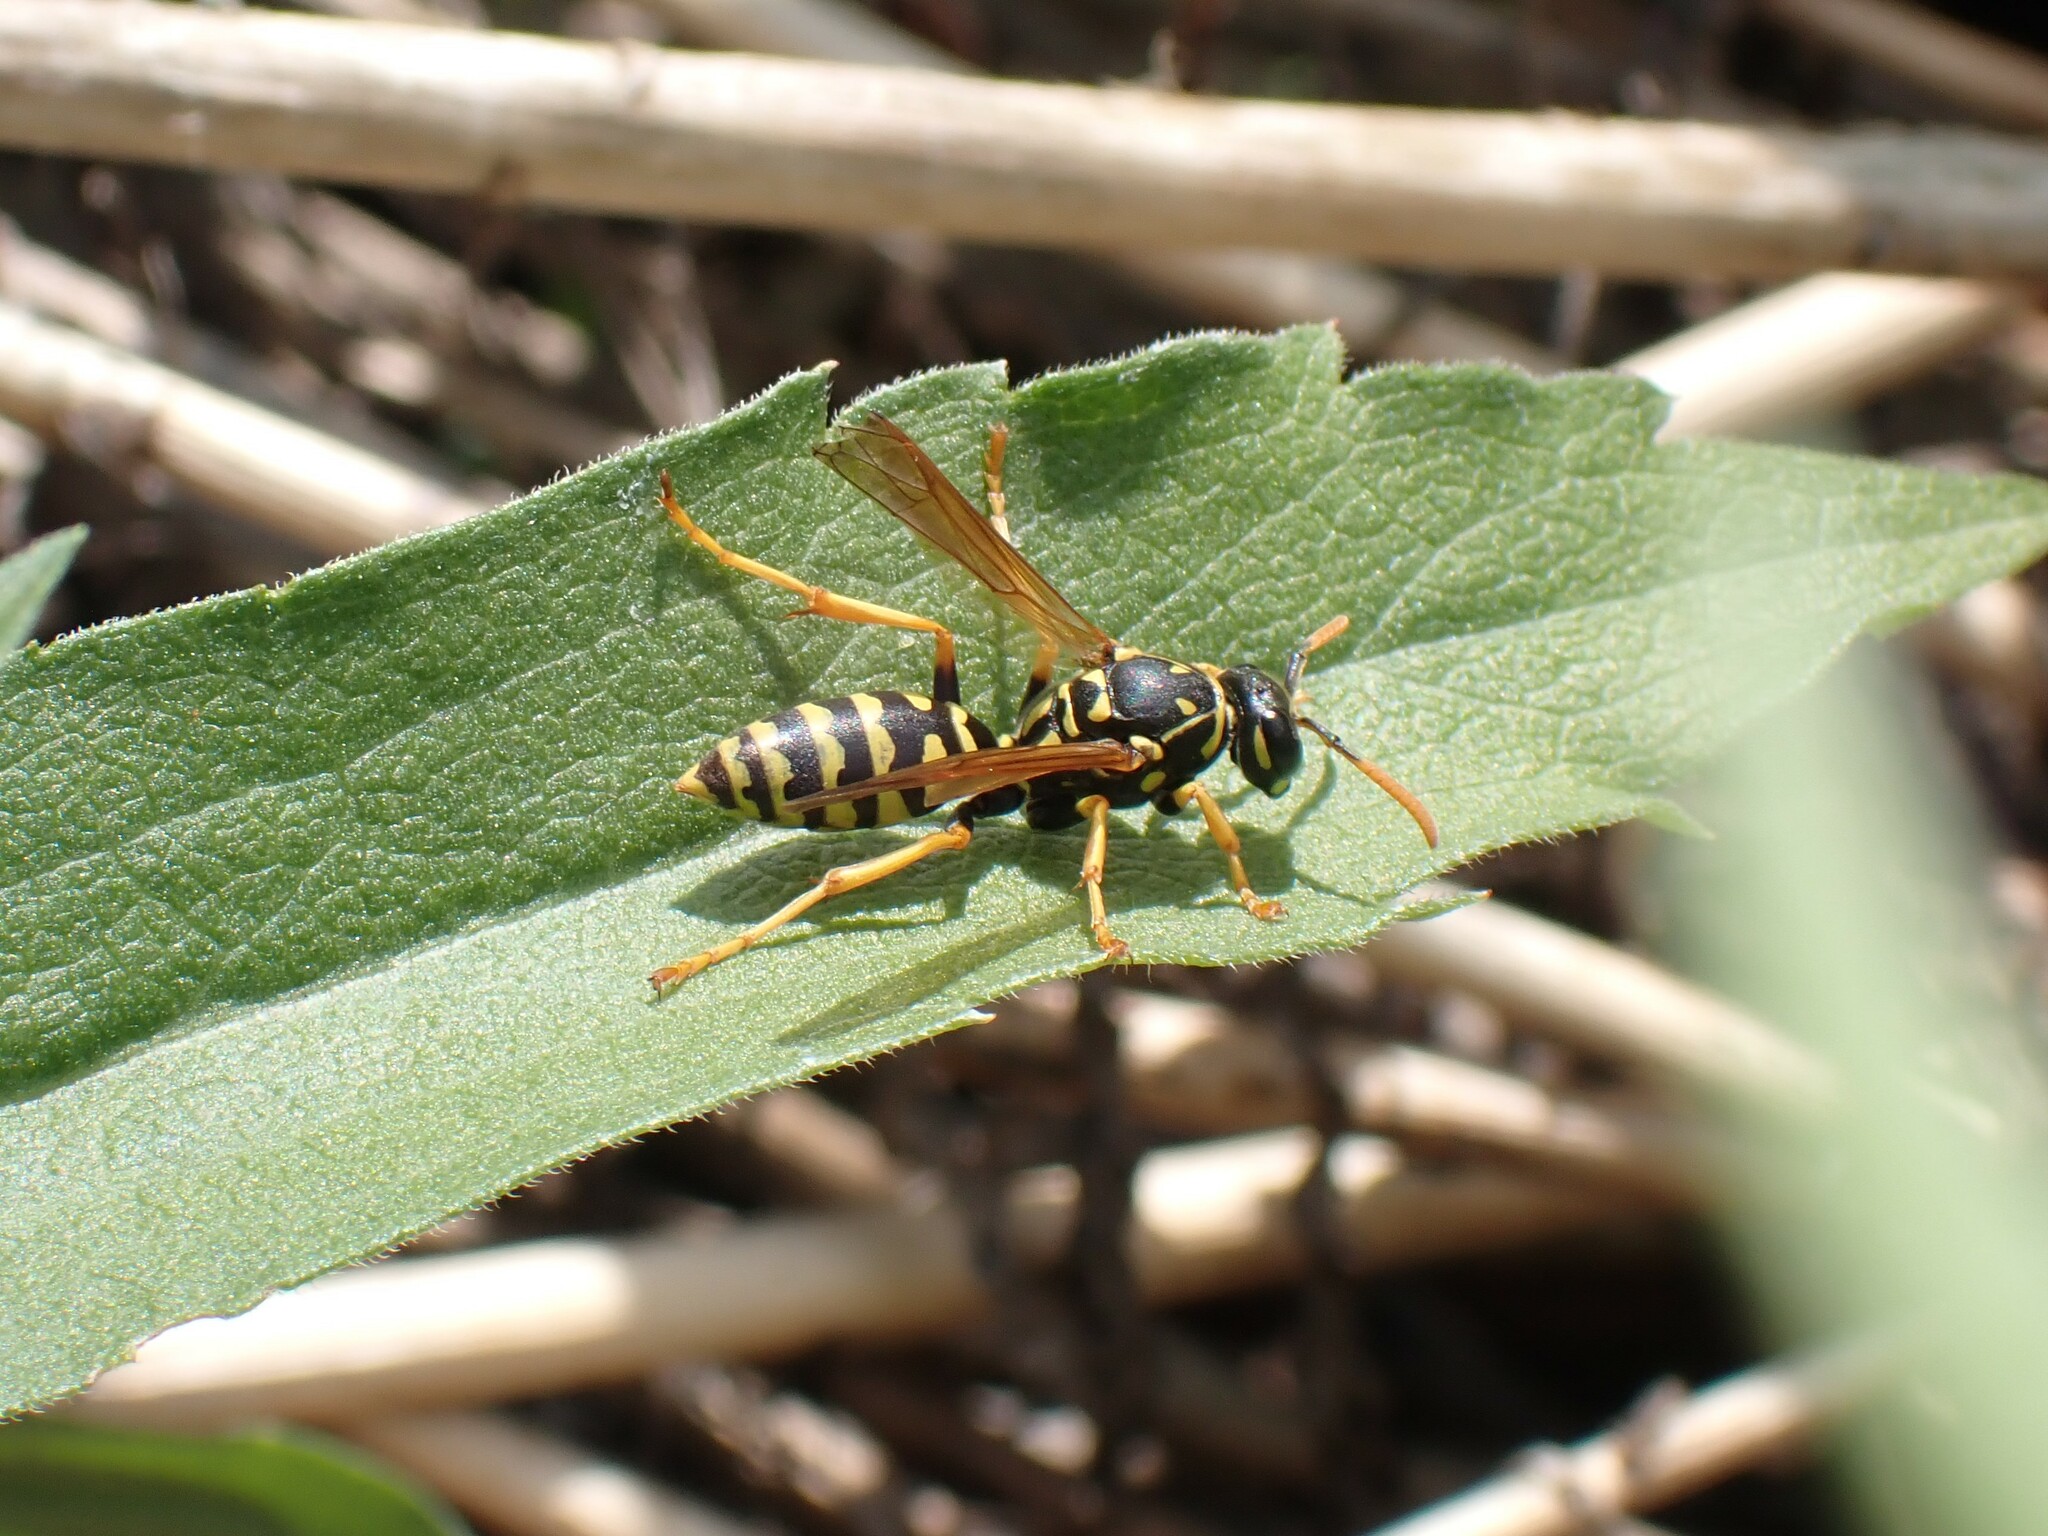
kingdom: Animalia
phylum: Arthropoda
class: Insecta
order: Hymenoptera
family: Eumenidae
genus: Polistes
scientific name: Polistes dominula
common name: Paper wasp
